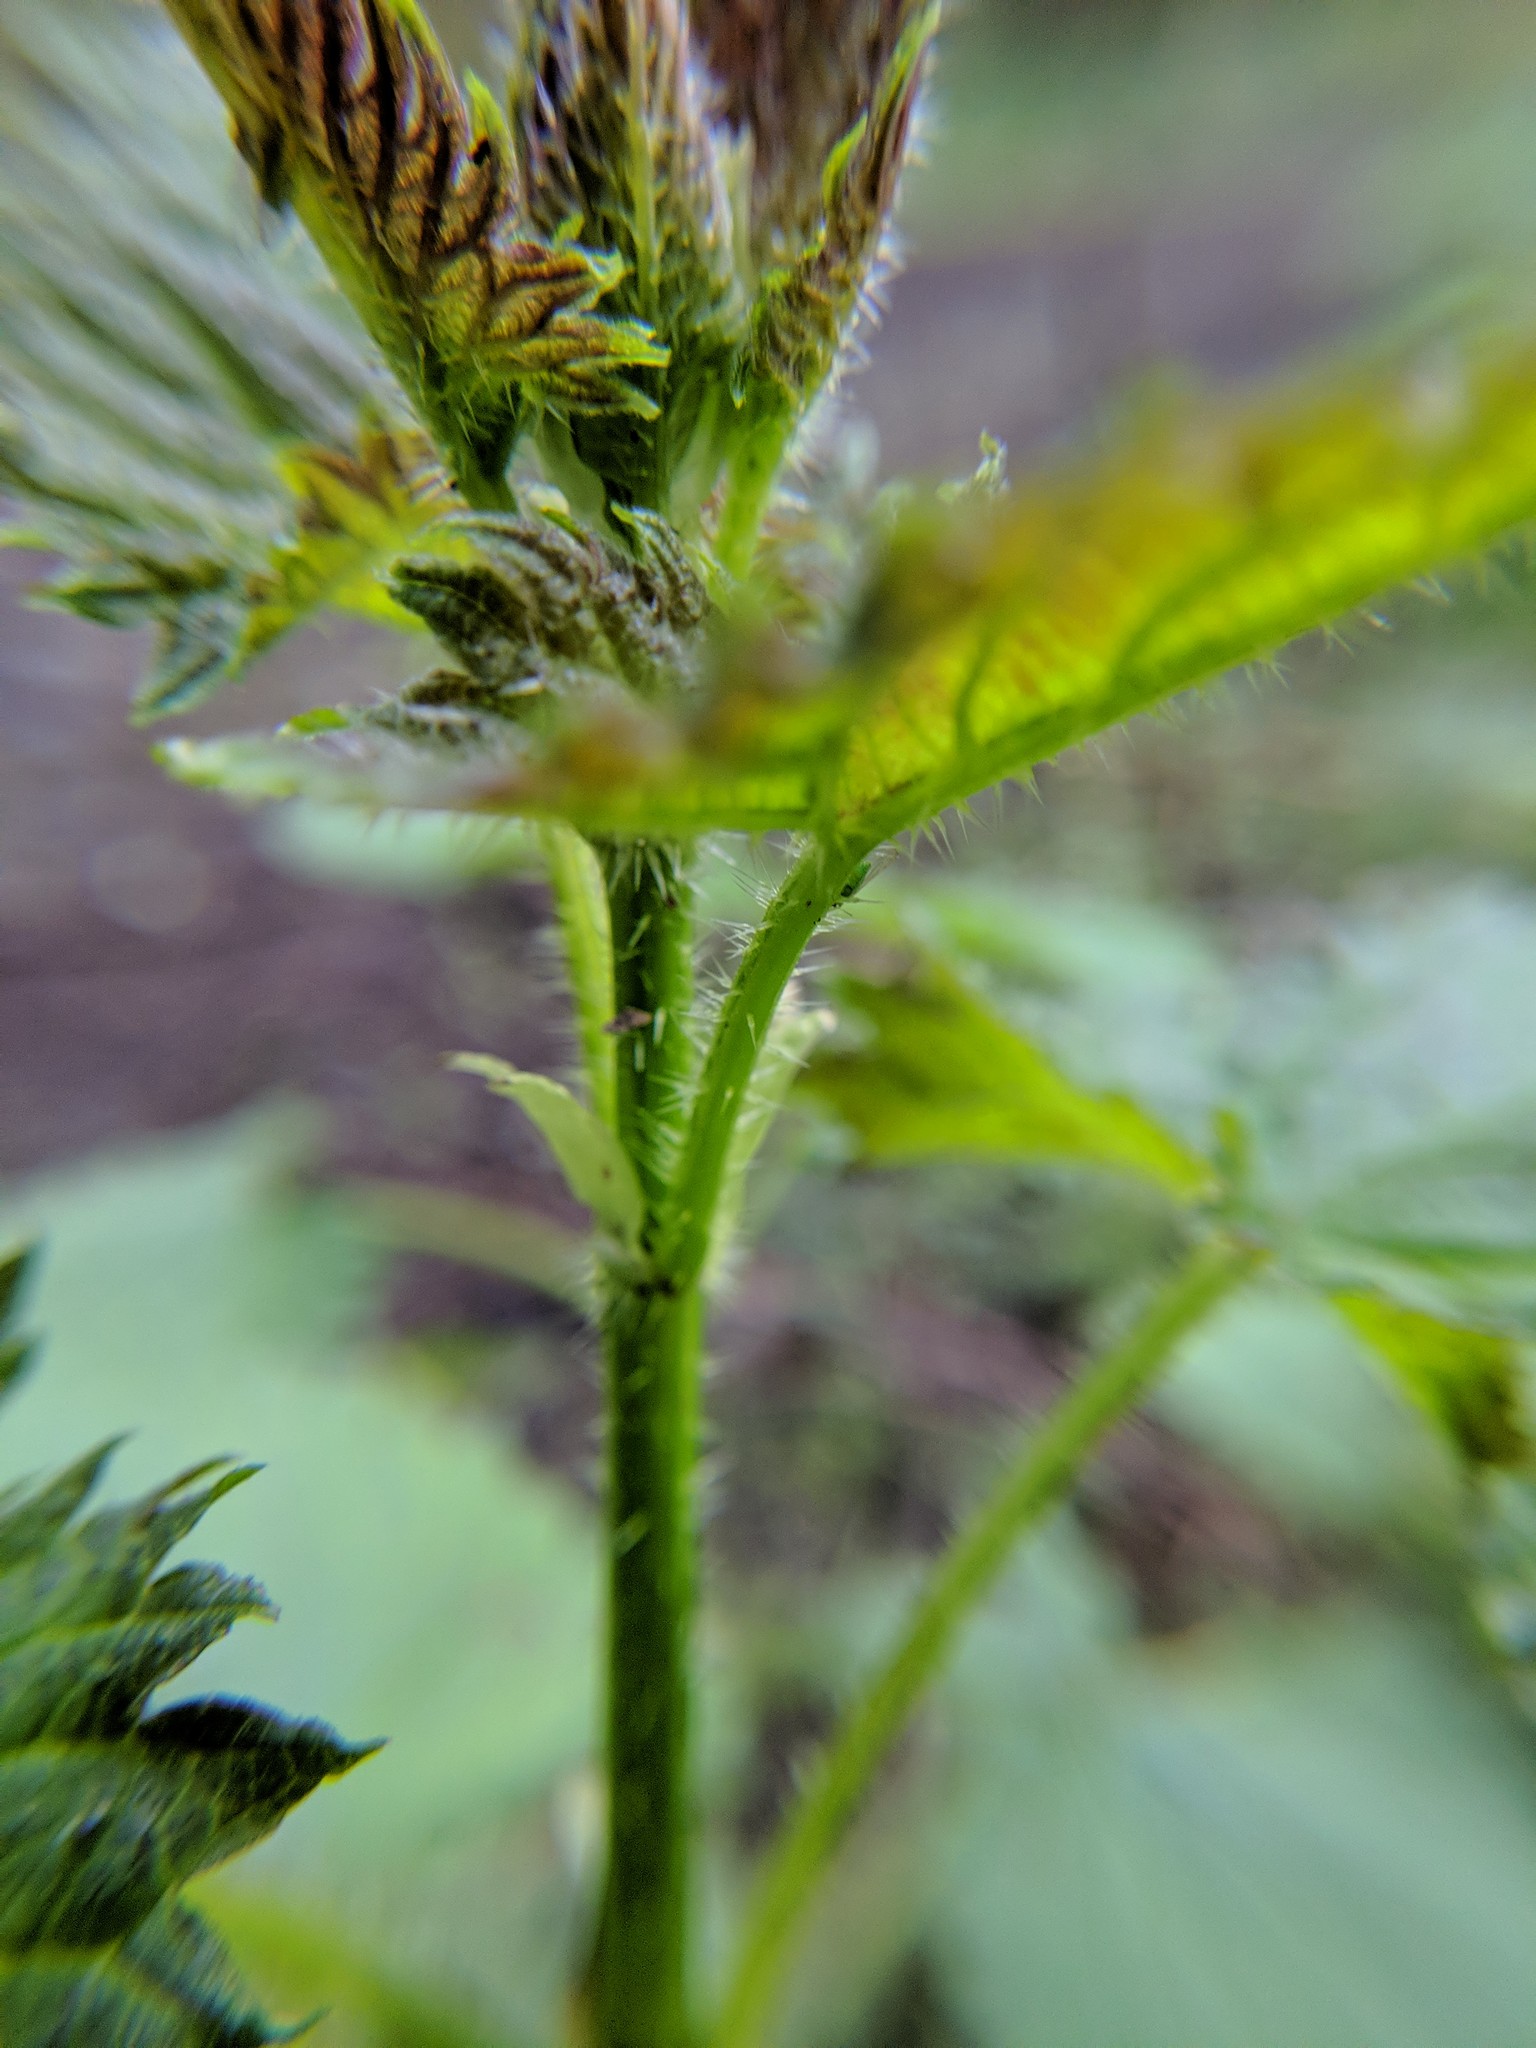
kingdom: Plantae
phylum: Tracheophyta
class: Magnoliopsida
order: Rosales
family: Urticaceae
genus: Urtica
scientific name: Urtica gracilis
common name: Slender stinging nettle
